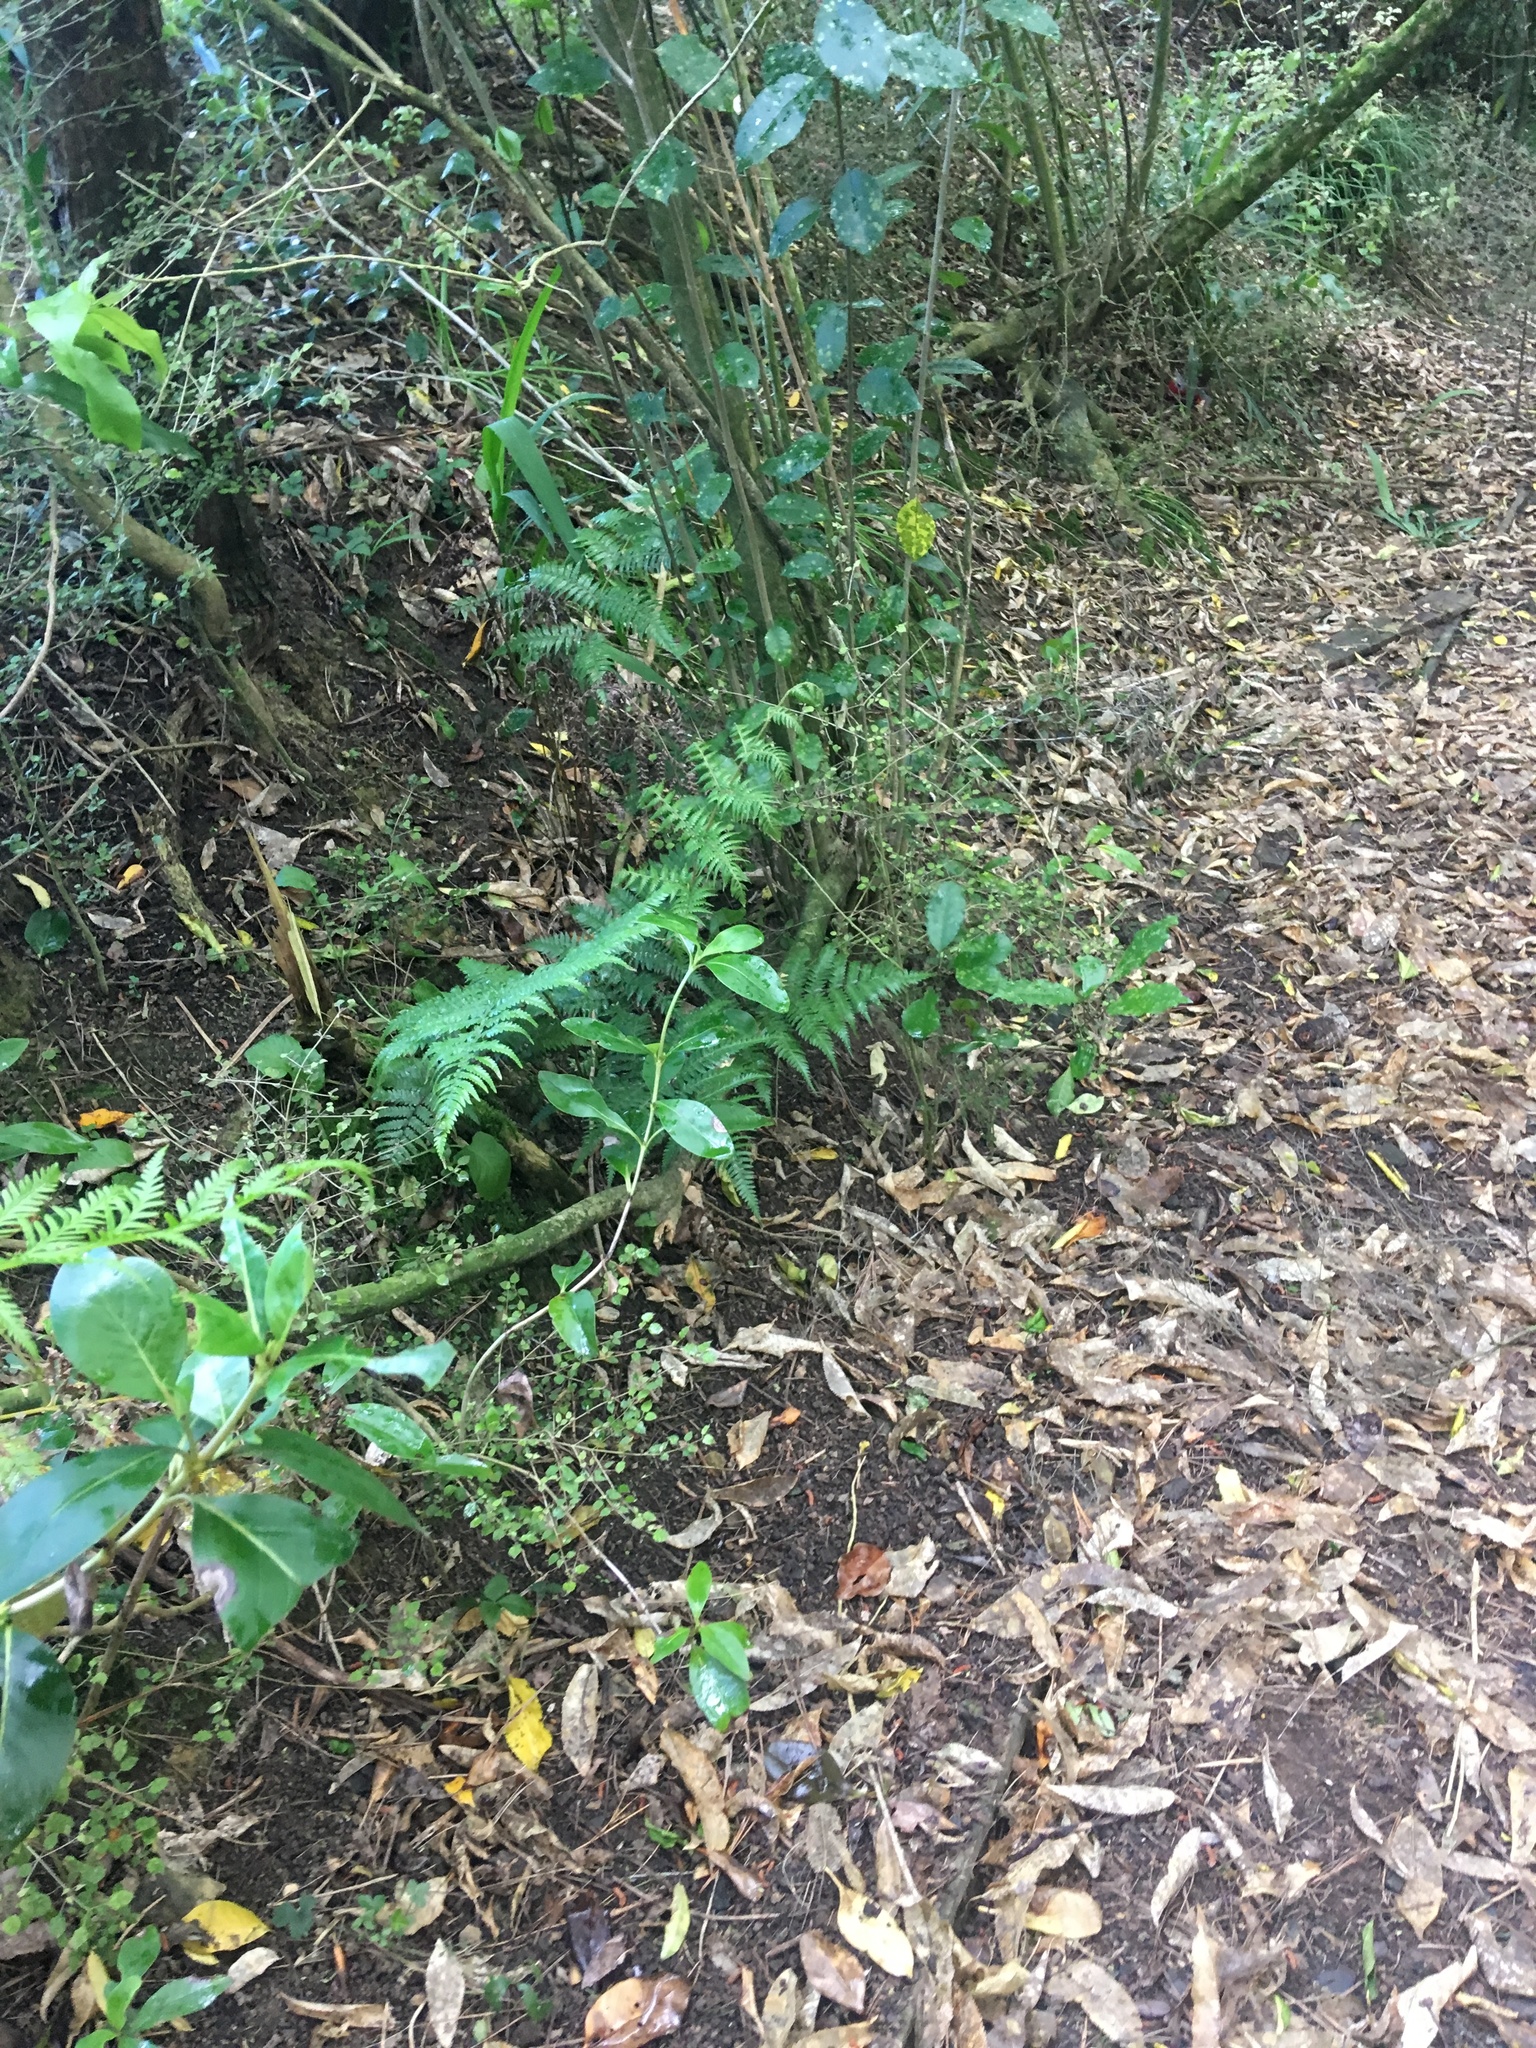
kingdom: Plantae
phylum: Tracheophyta
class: Magnoliopsida
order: Gentianales
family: Rubiaceae
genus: Coprosma
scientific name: Coprosma areolata
